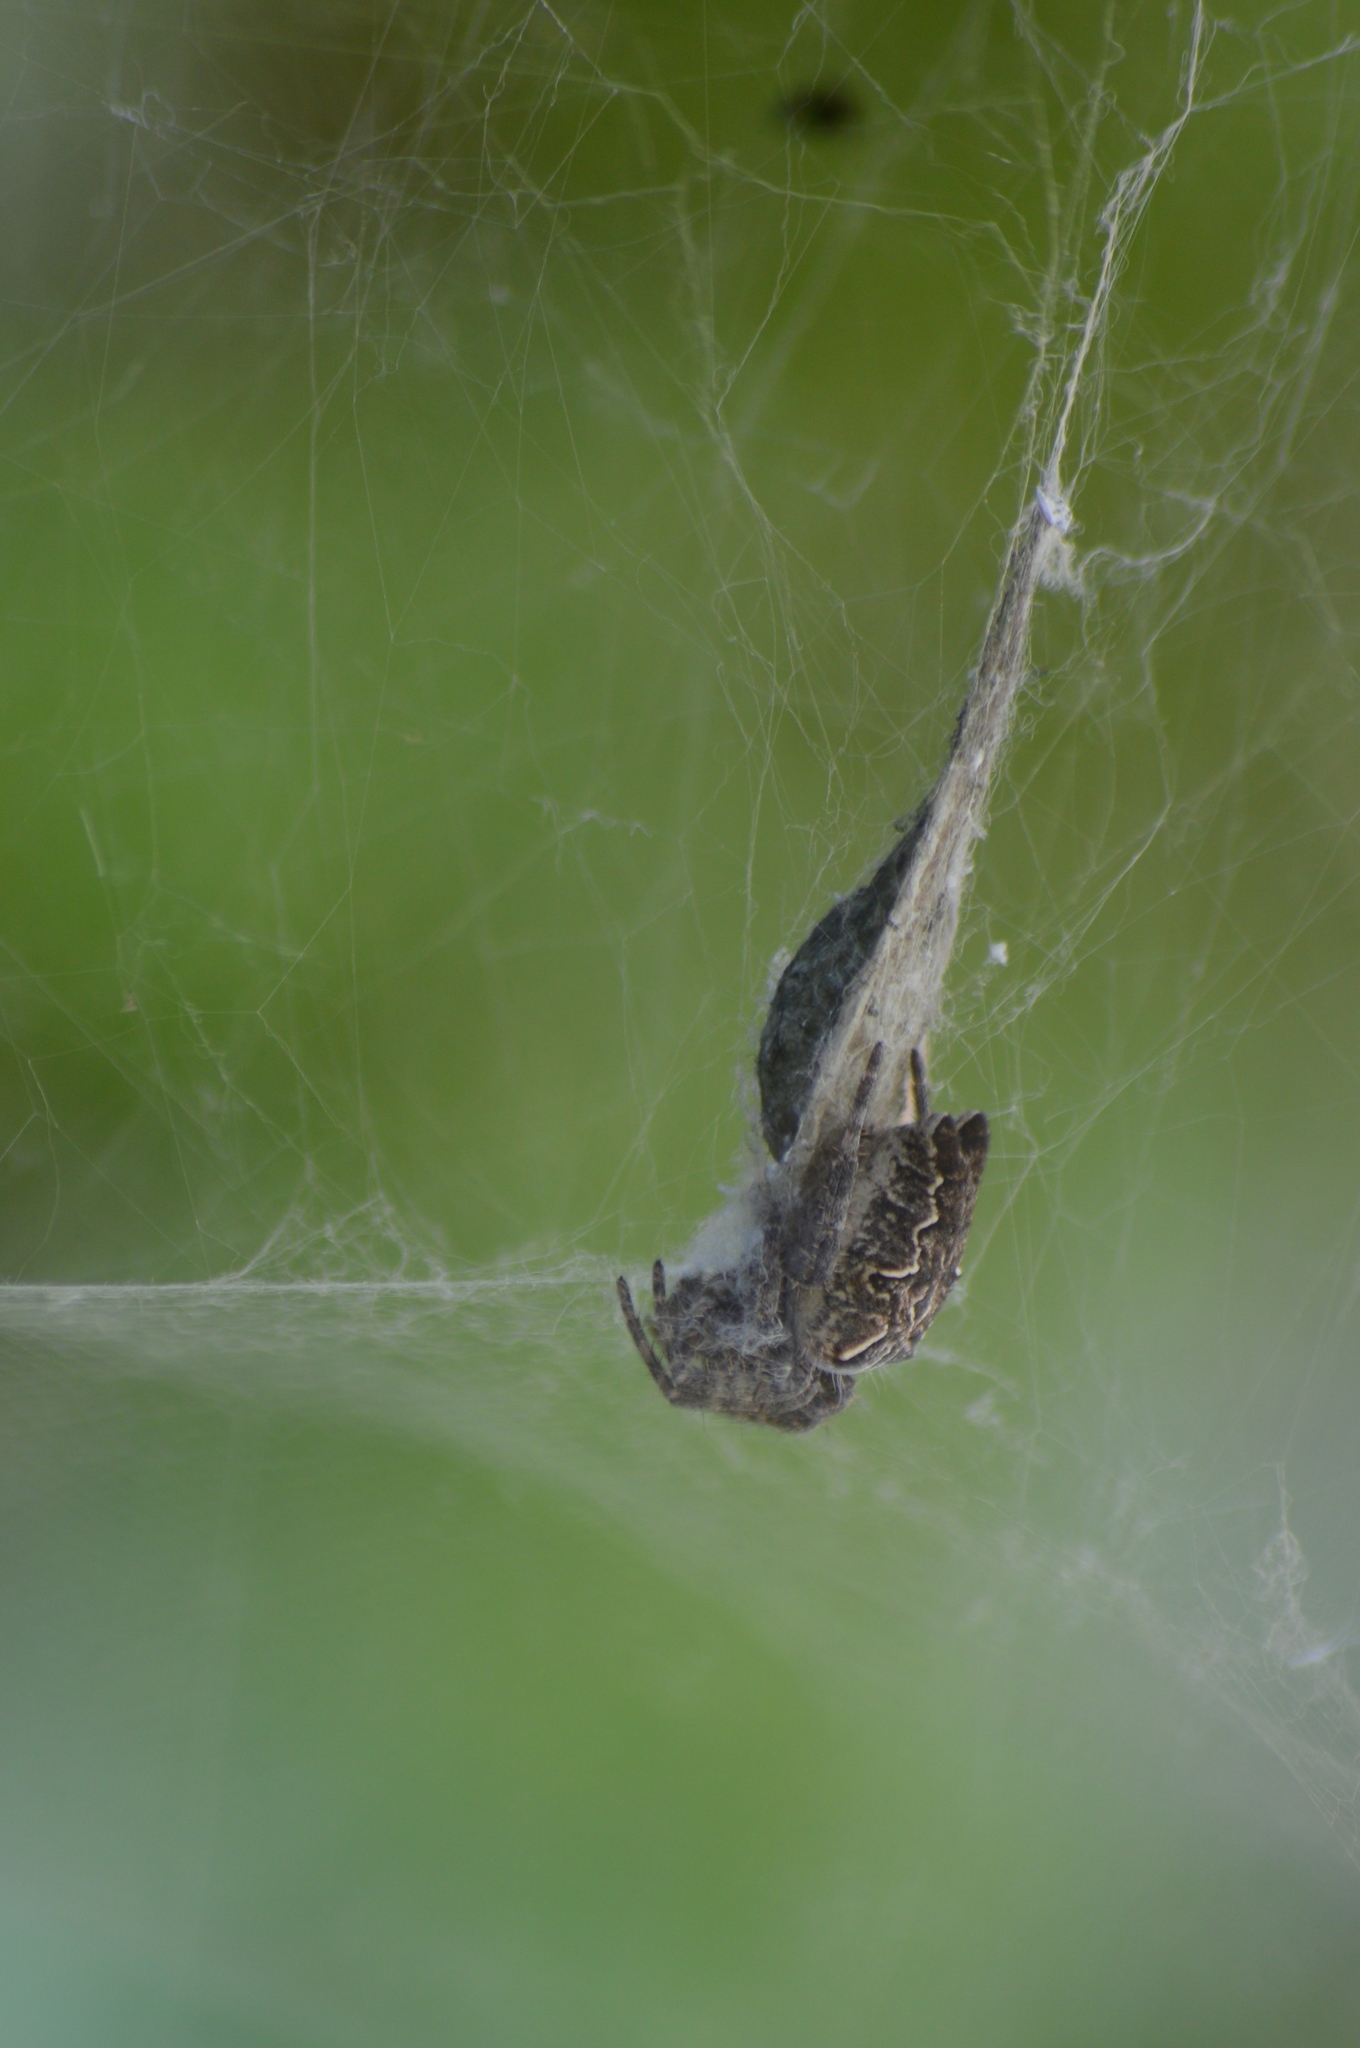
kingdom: Animalia
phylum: Arthropoda
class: Arachnida
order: Araneae
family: Araneidae
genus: Cyrtophora
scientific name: Cyrtophora citricola
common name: Orb weavers
